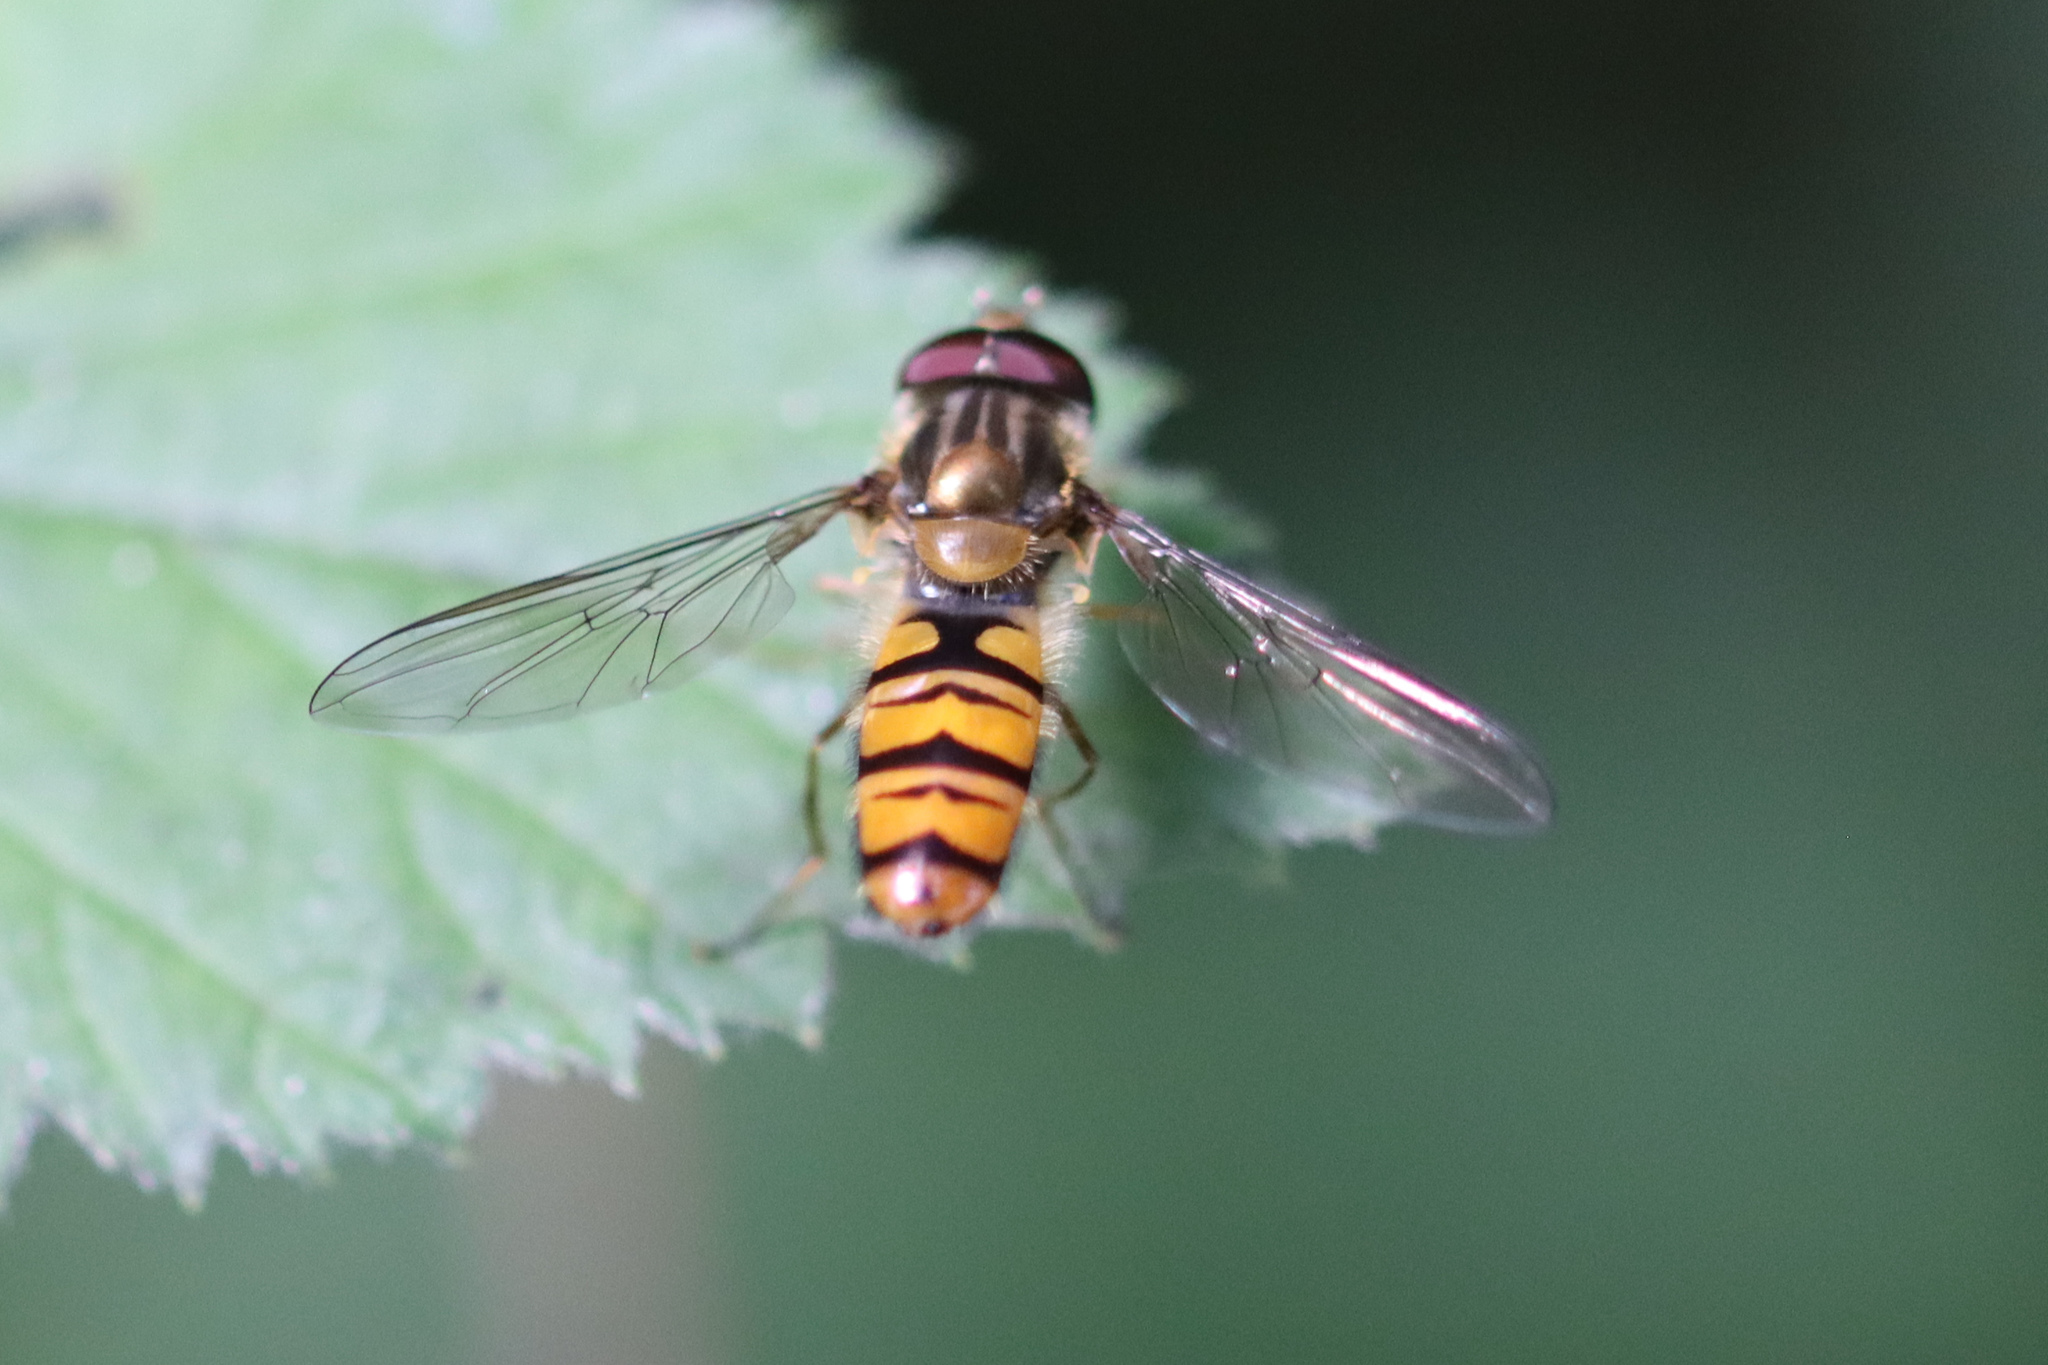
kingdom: Animalia
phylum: Arthropoda
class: Insecta
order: Diptera
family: Syrphidae
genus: Episyrphus
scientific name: Episyrphus balteatus
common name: Marmalade hoverfly
